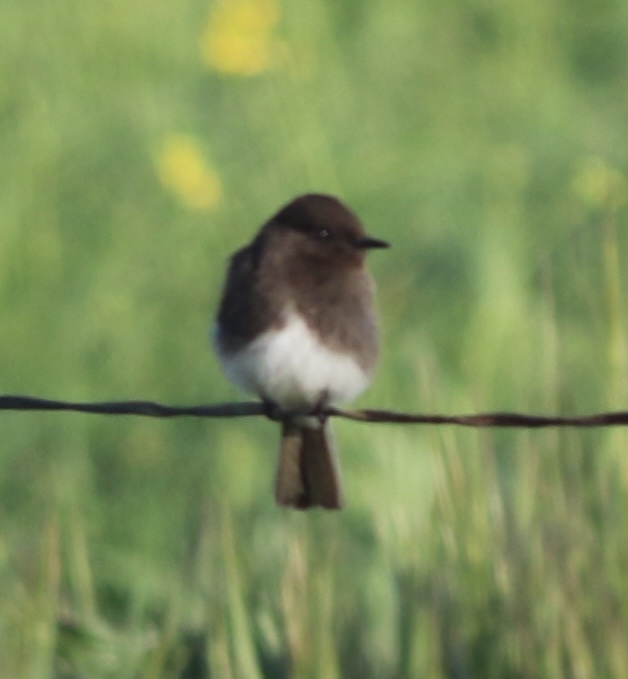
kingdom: Animalia
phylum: Chordata
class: Aves
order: Passeriformes
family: Tyrannidae
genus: Sayornis
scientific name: Sayornis nigricans
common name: Black phoebe
